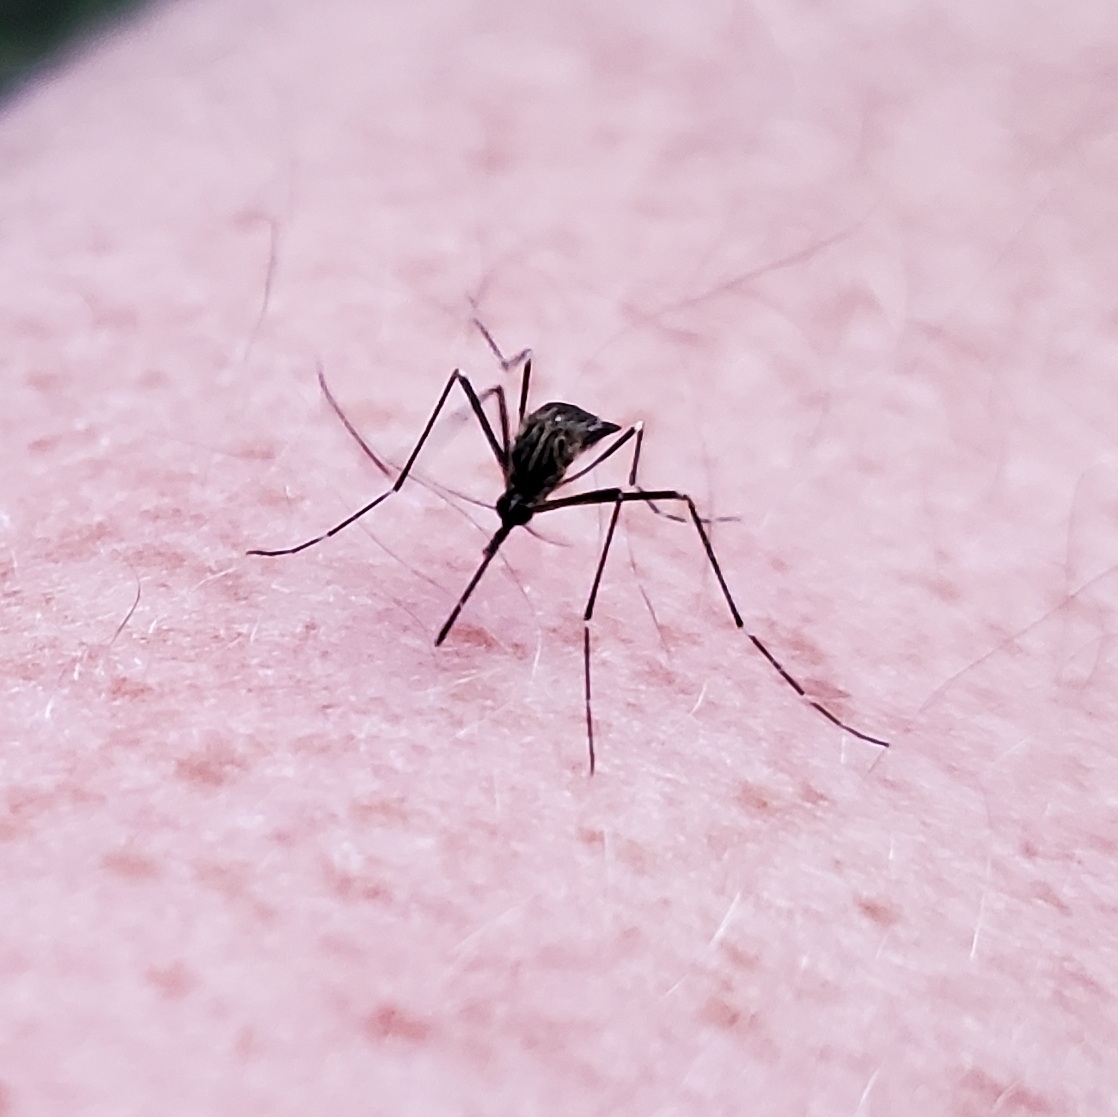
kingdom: Animalia
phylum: Arthropoda
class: Insecta
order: Diptera
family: Culicidae
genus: Aedes
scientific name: Aedes japonicus
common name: Asian bush mosquito
